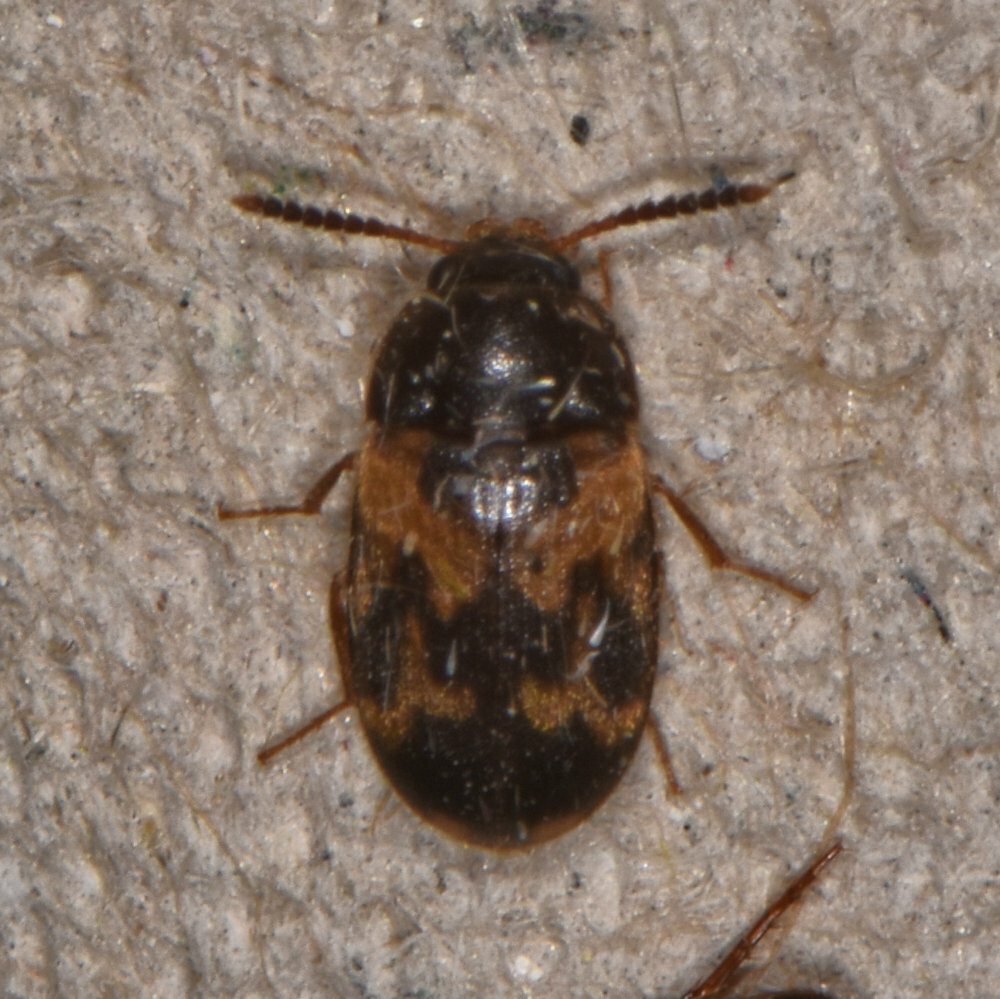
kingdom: Animalia
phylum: Arthropoda
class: Insecta
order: Coleoptera
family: Mycetophagidae
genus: Mycetophagus
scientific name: Mycetophagus serrulatus
